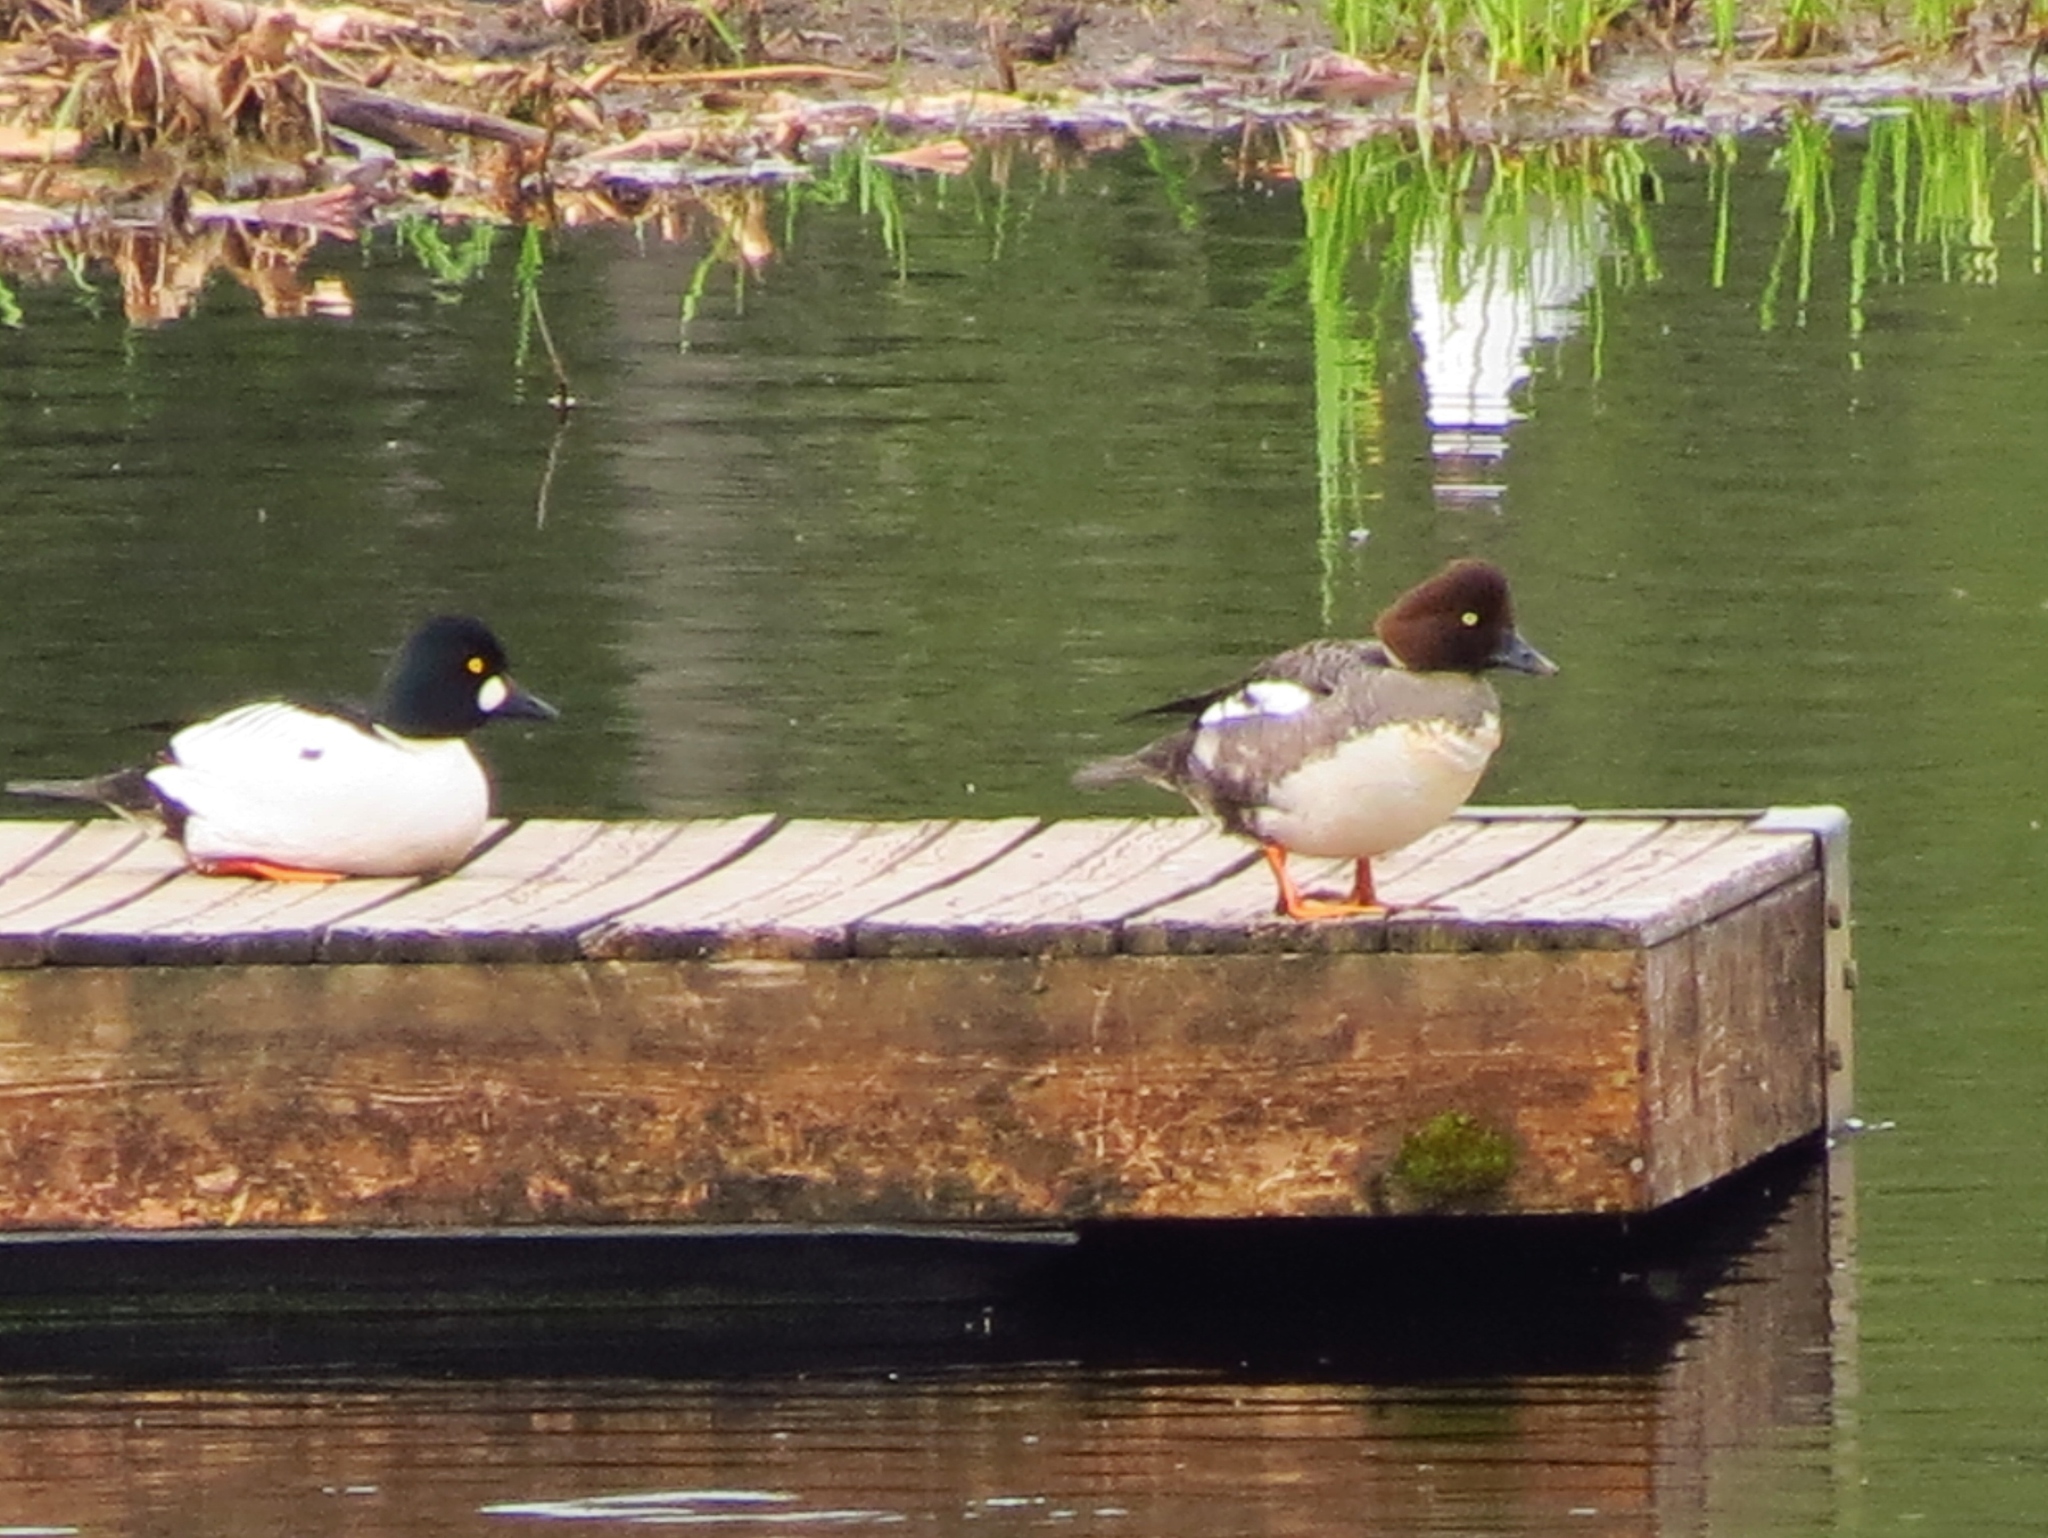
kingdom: Animalia
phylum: Chordata
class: Aves
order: Anseriformes
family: Anatidae
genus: Bucephala
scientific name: Bucephala clangula
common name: Common goldeneye
